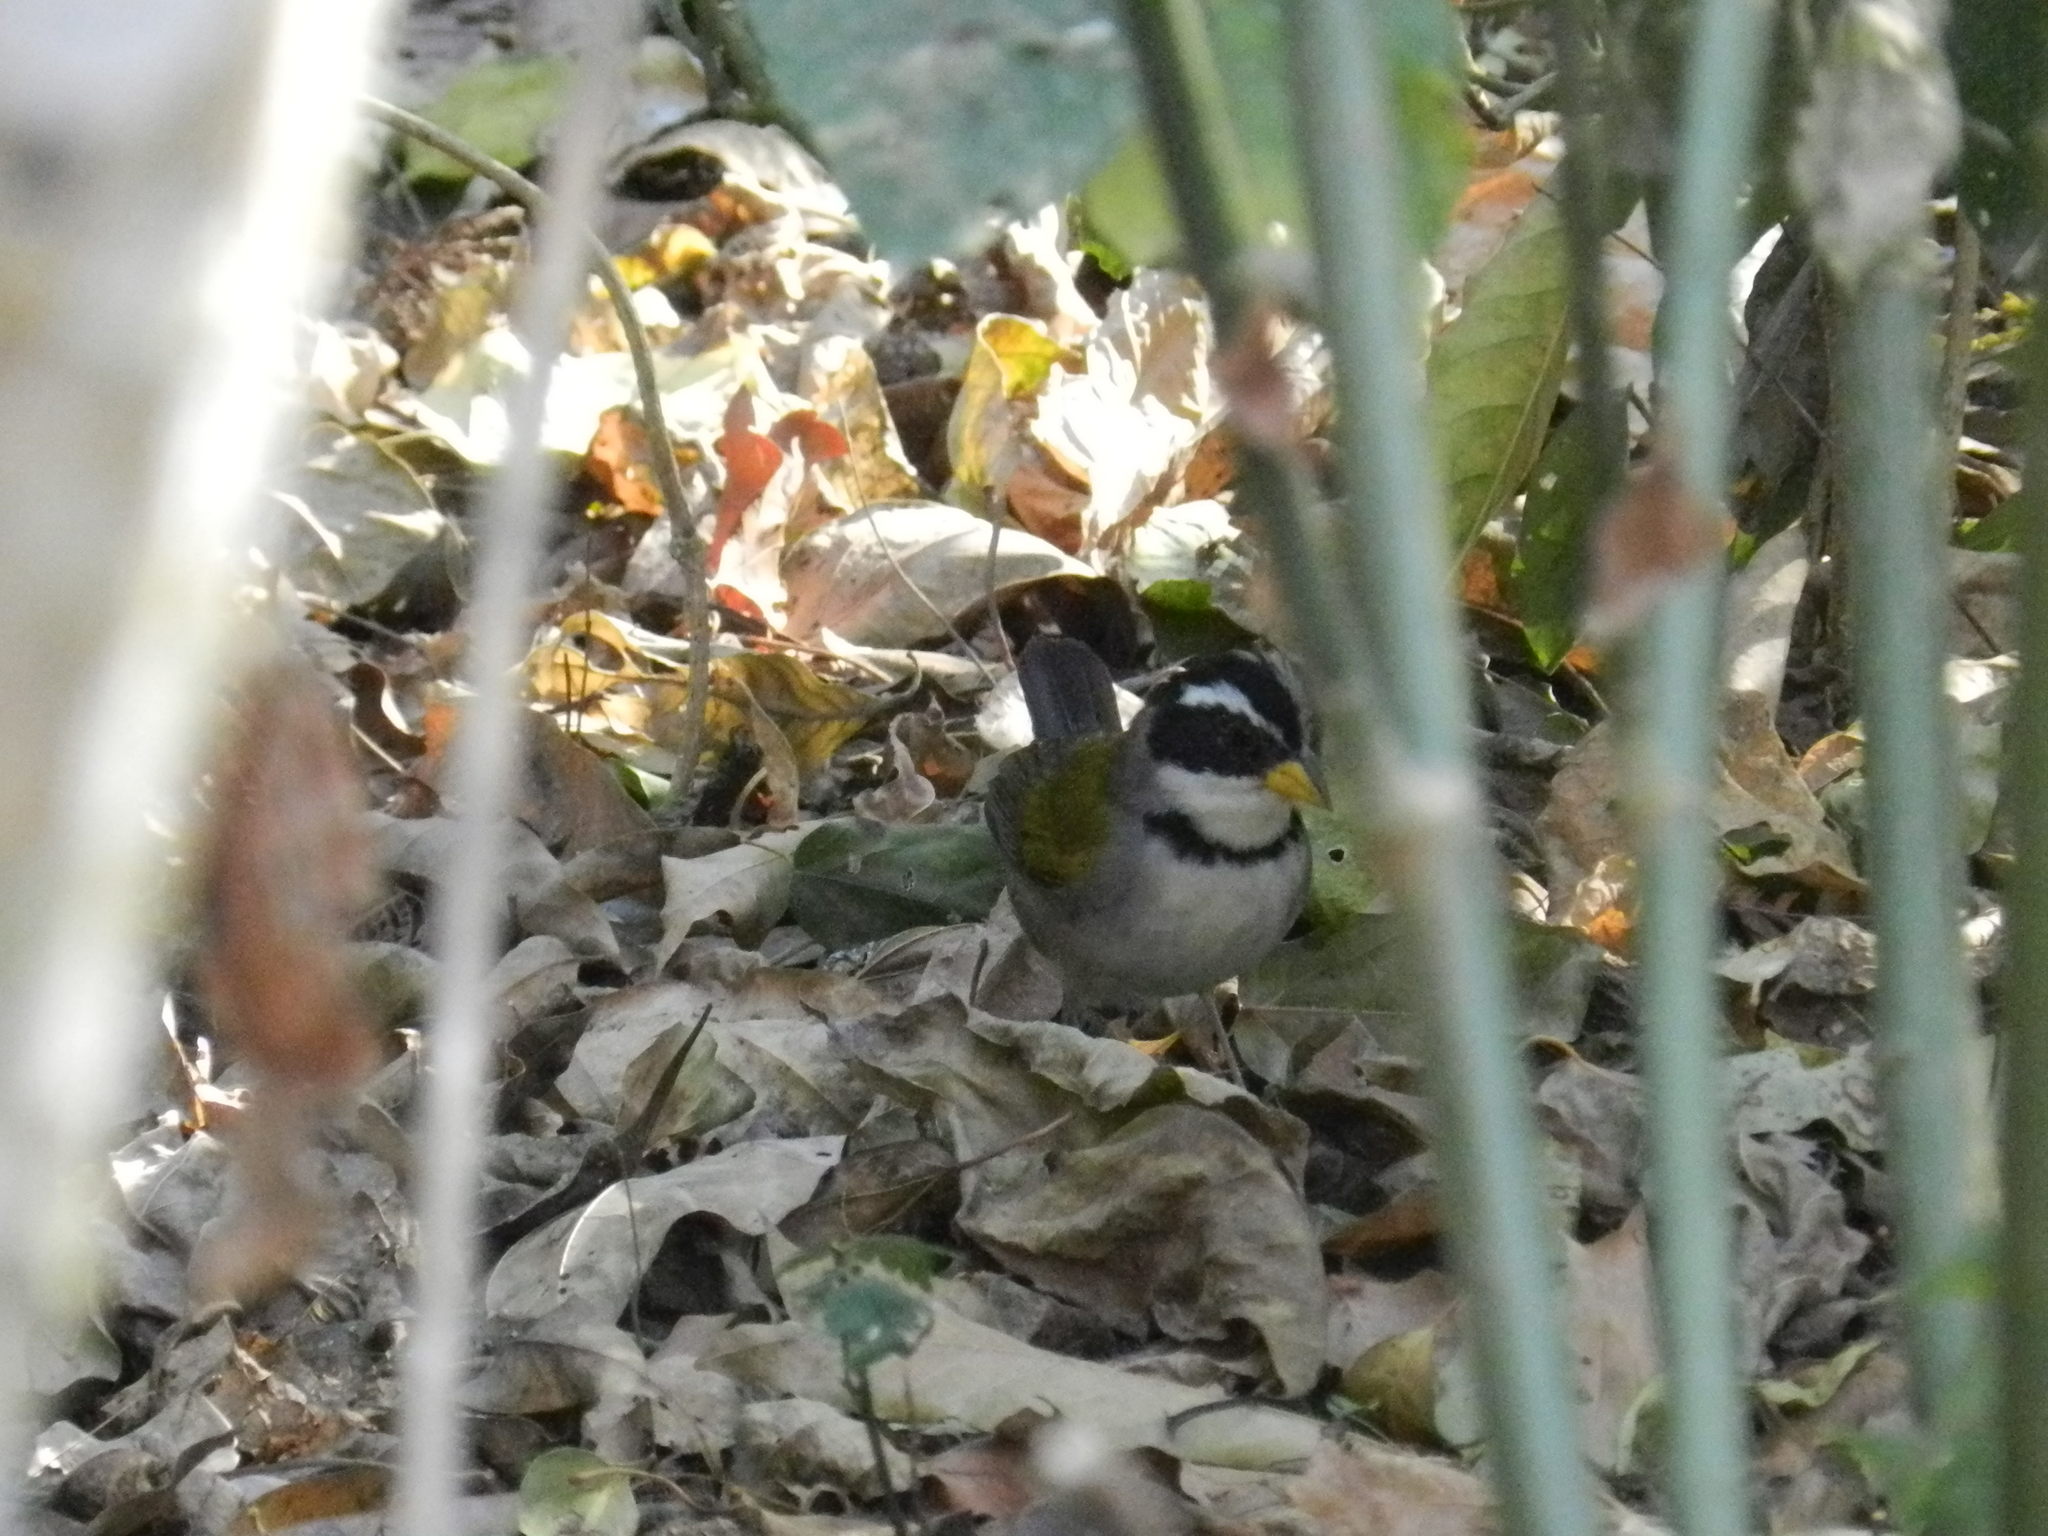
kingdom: Animalia
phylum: Chordata
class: Aves
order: Passeriformes
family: Passerellidae
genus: Arremon
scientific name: Arremon dorbignii
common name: Moss-backed sparrow
